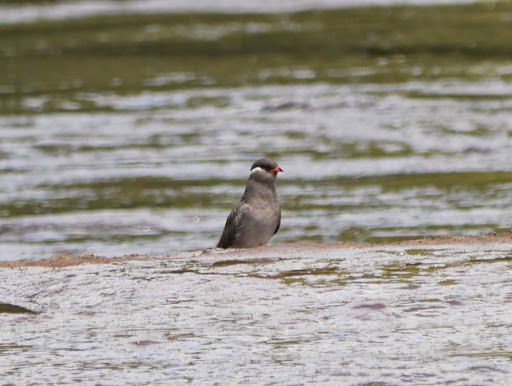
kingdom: Animalia
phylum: Chordata
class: Aves
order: Charadriiformes
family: Glareolidae
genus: Glareola
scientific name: Glareola nuchalis
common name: Rock pratincole
